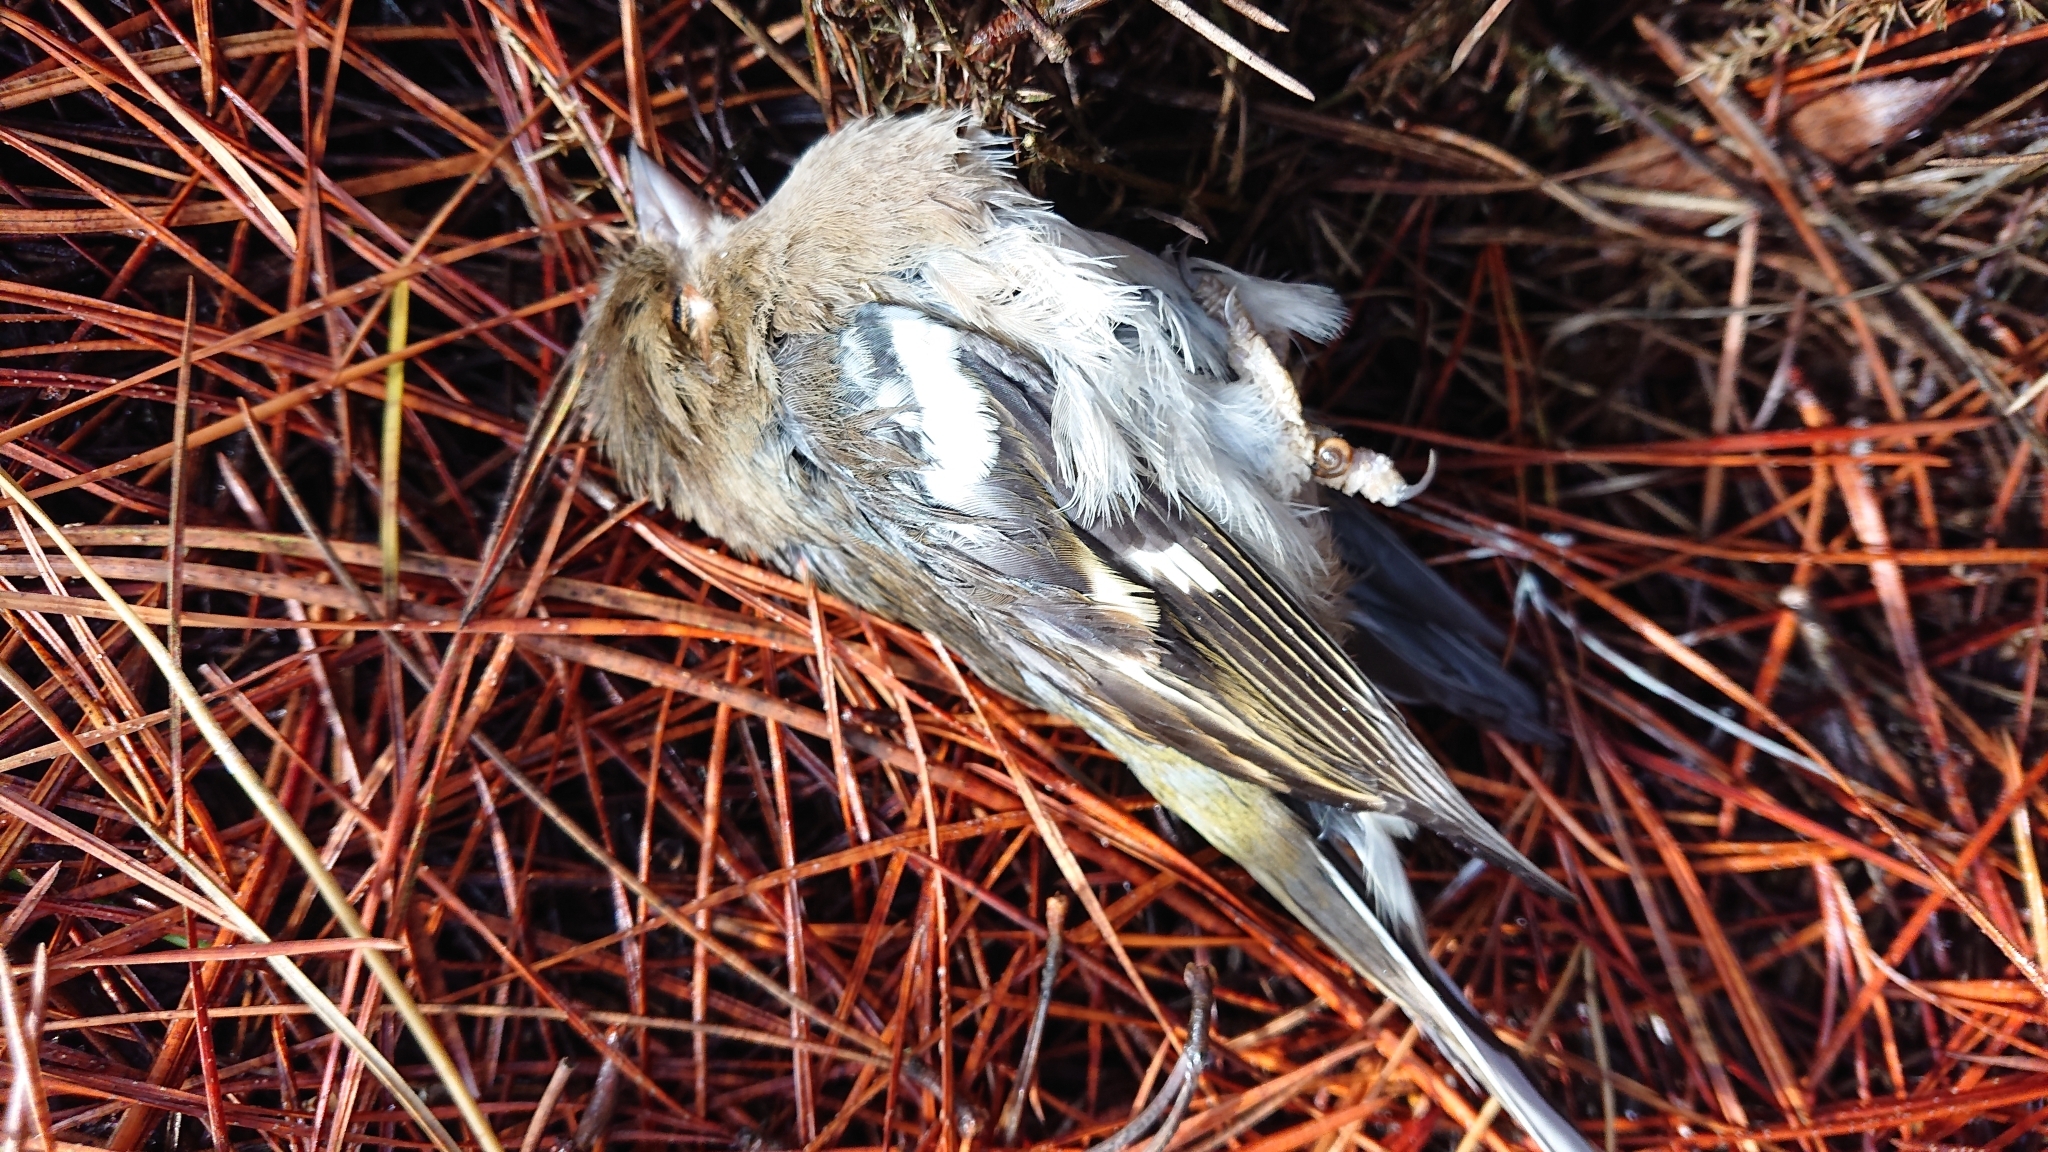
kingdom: Animalia
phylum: Chordata
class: Aves
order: Passeriformes
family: Fringillidae
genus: Fringilla
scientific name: Fringilla coelebs
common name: Common chaffinch
